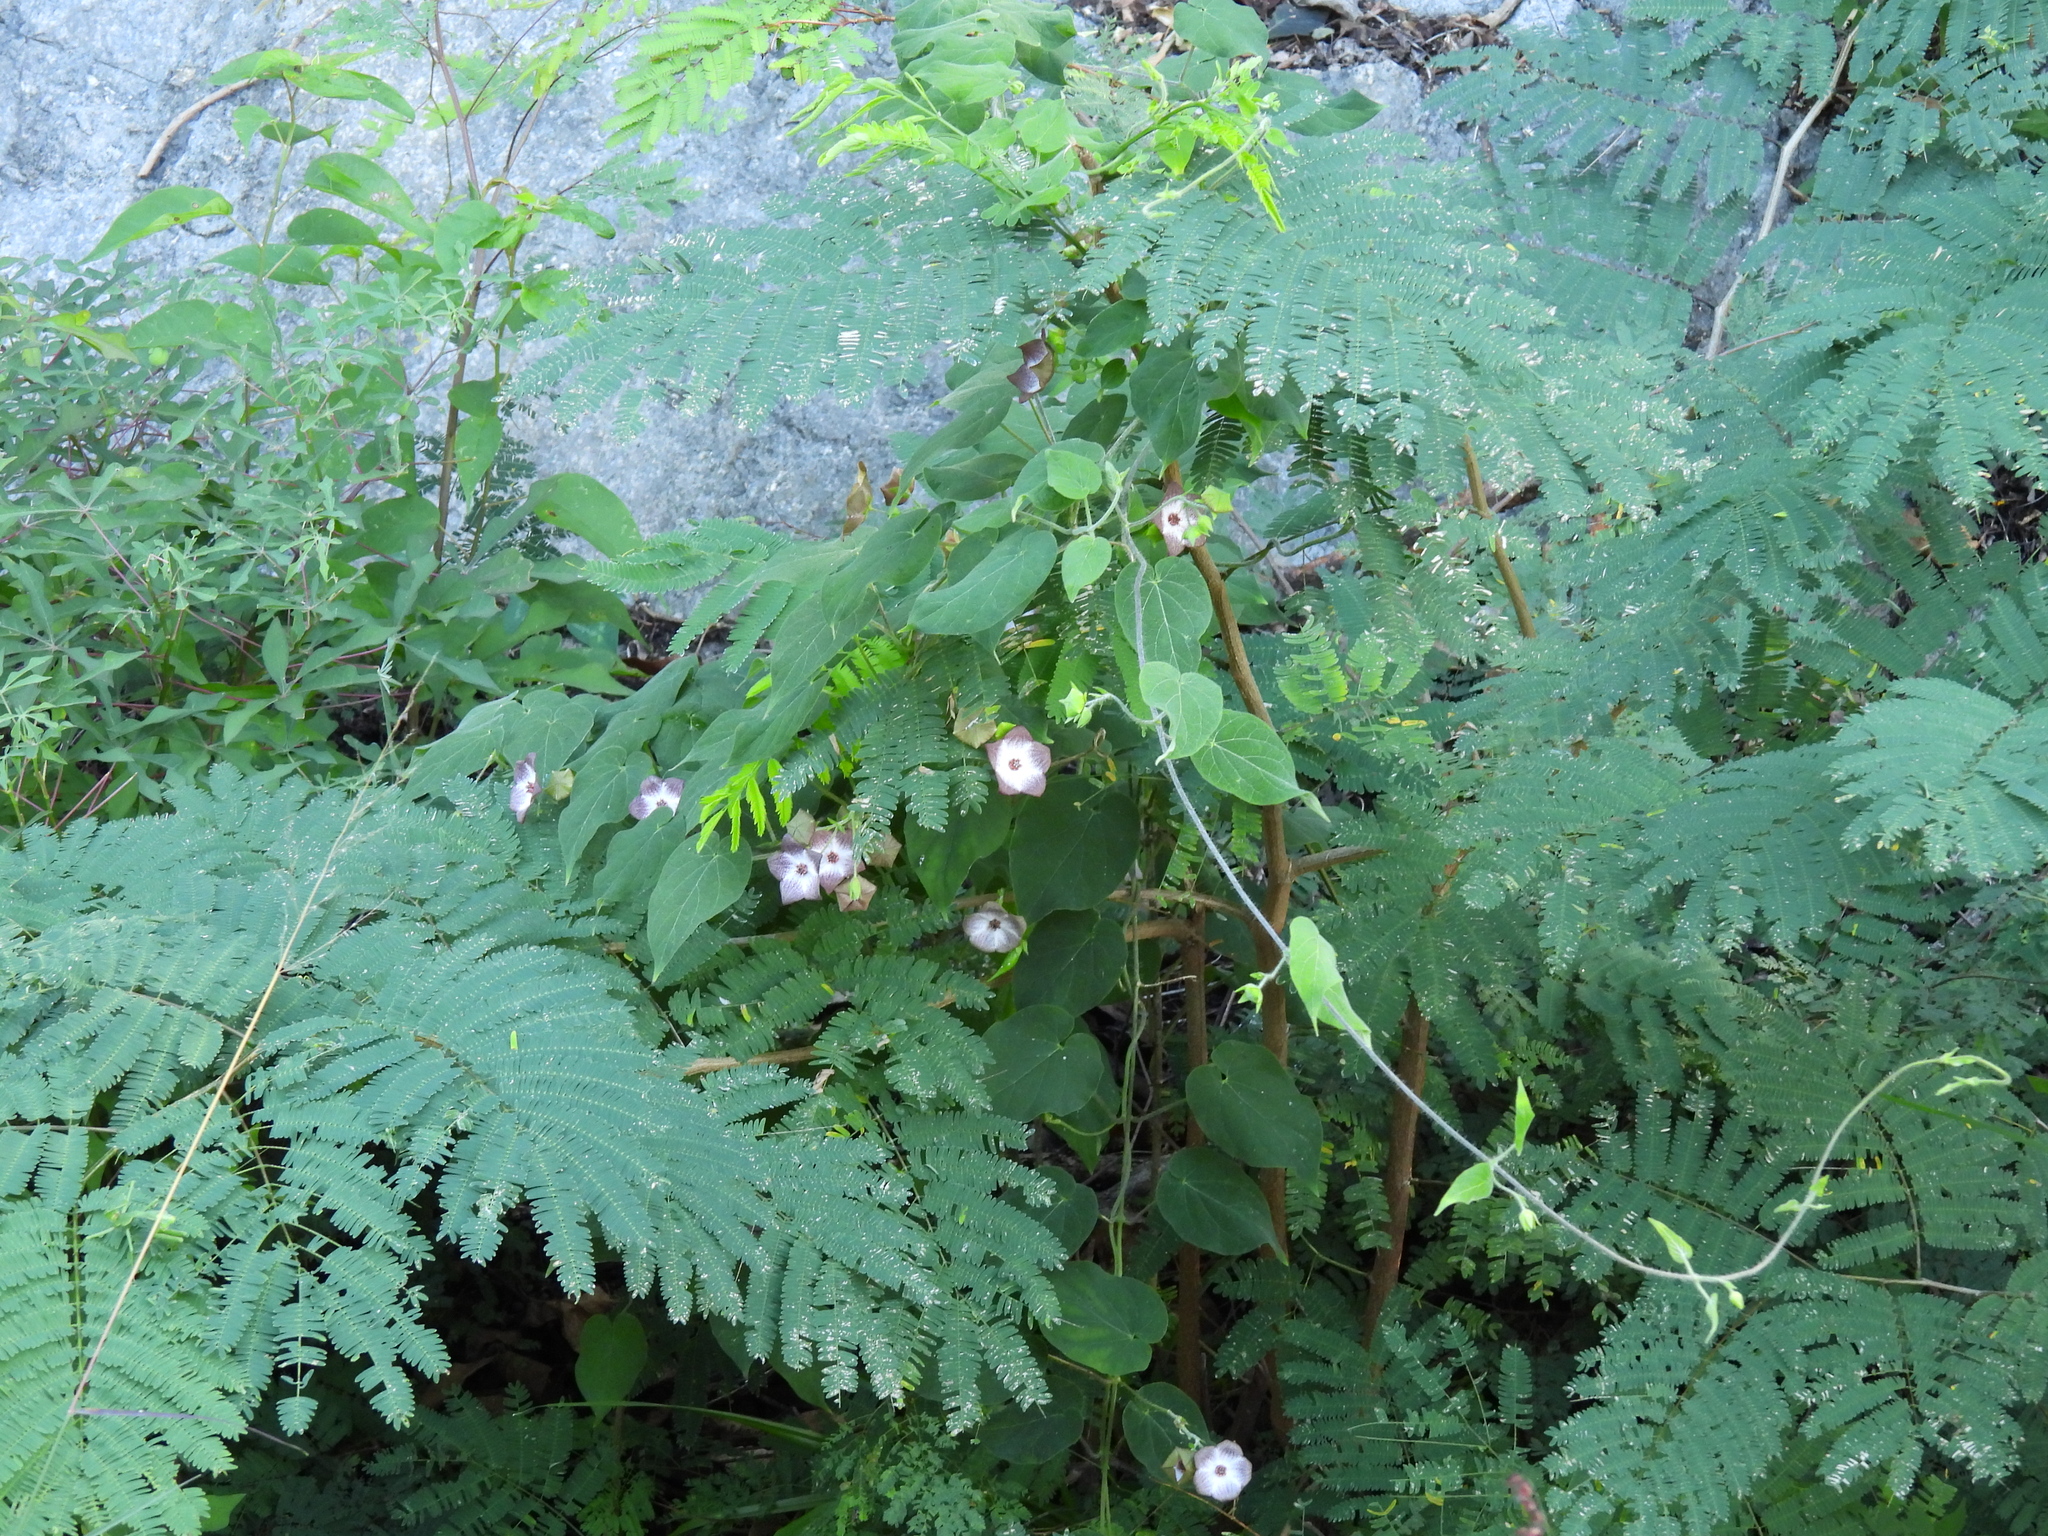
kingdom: Plantae
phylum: Tracheophyta
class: Magnoliopsida
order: Gentianales
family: Apocynaceae
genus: Polystemma
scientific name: Polystemma guatemalense
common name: Arborescente rattan
